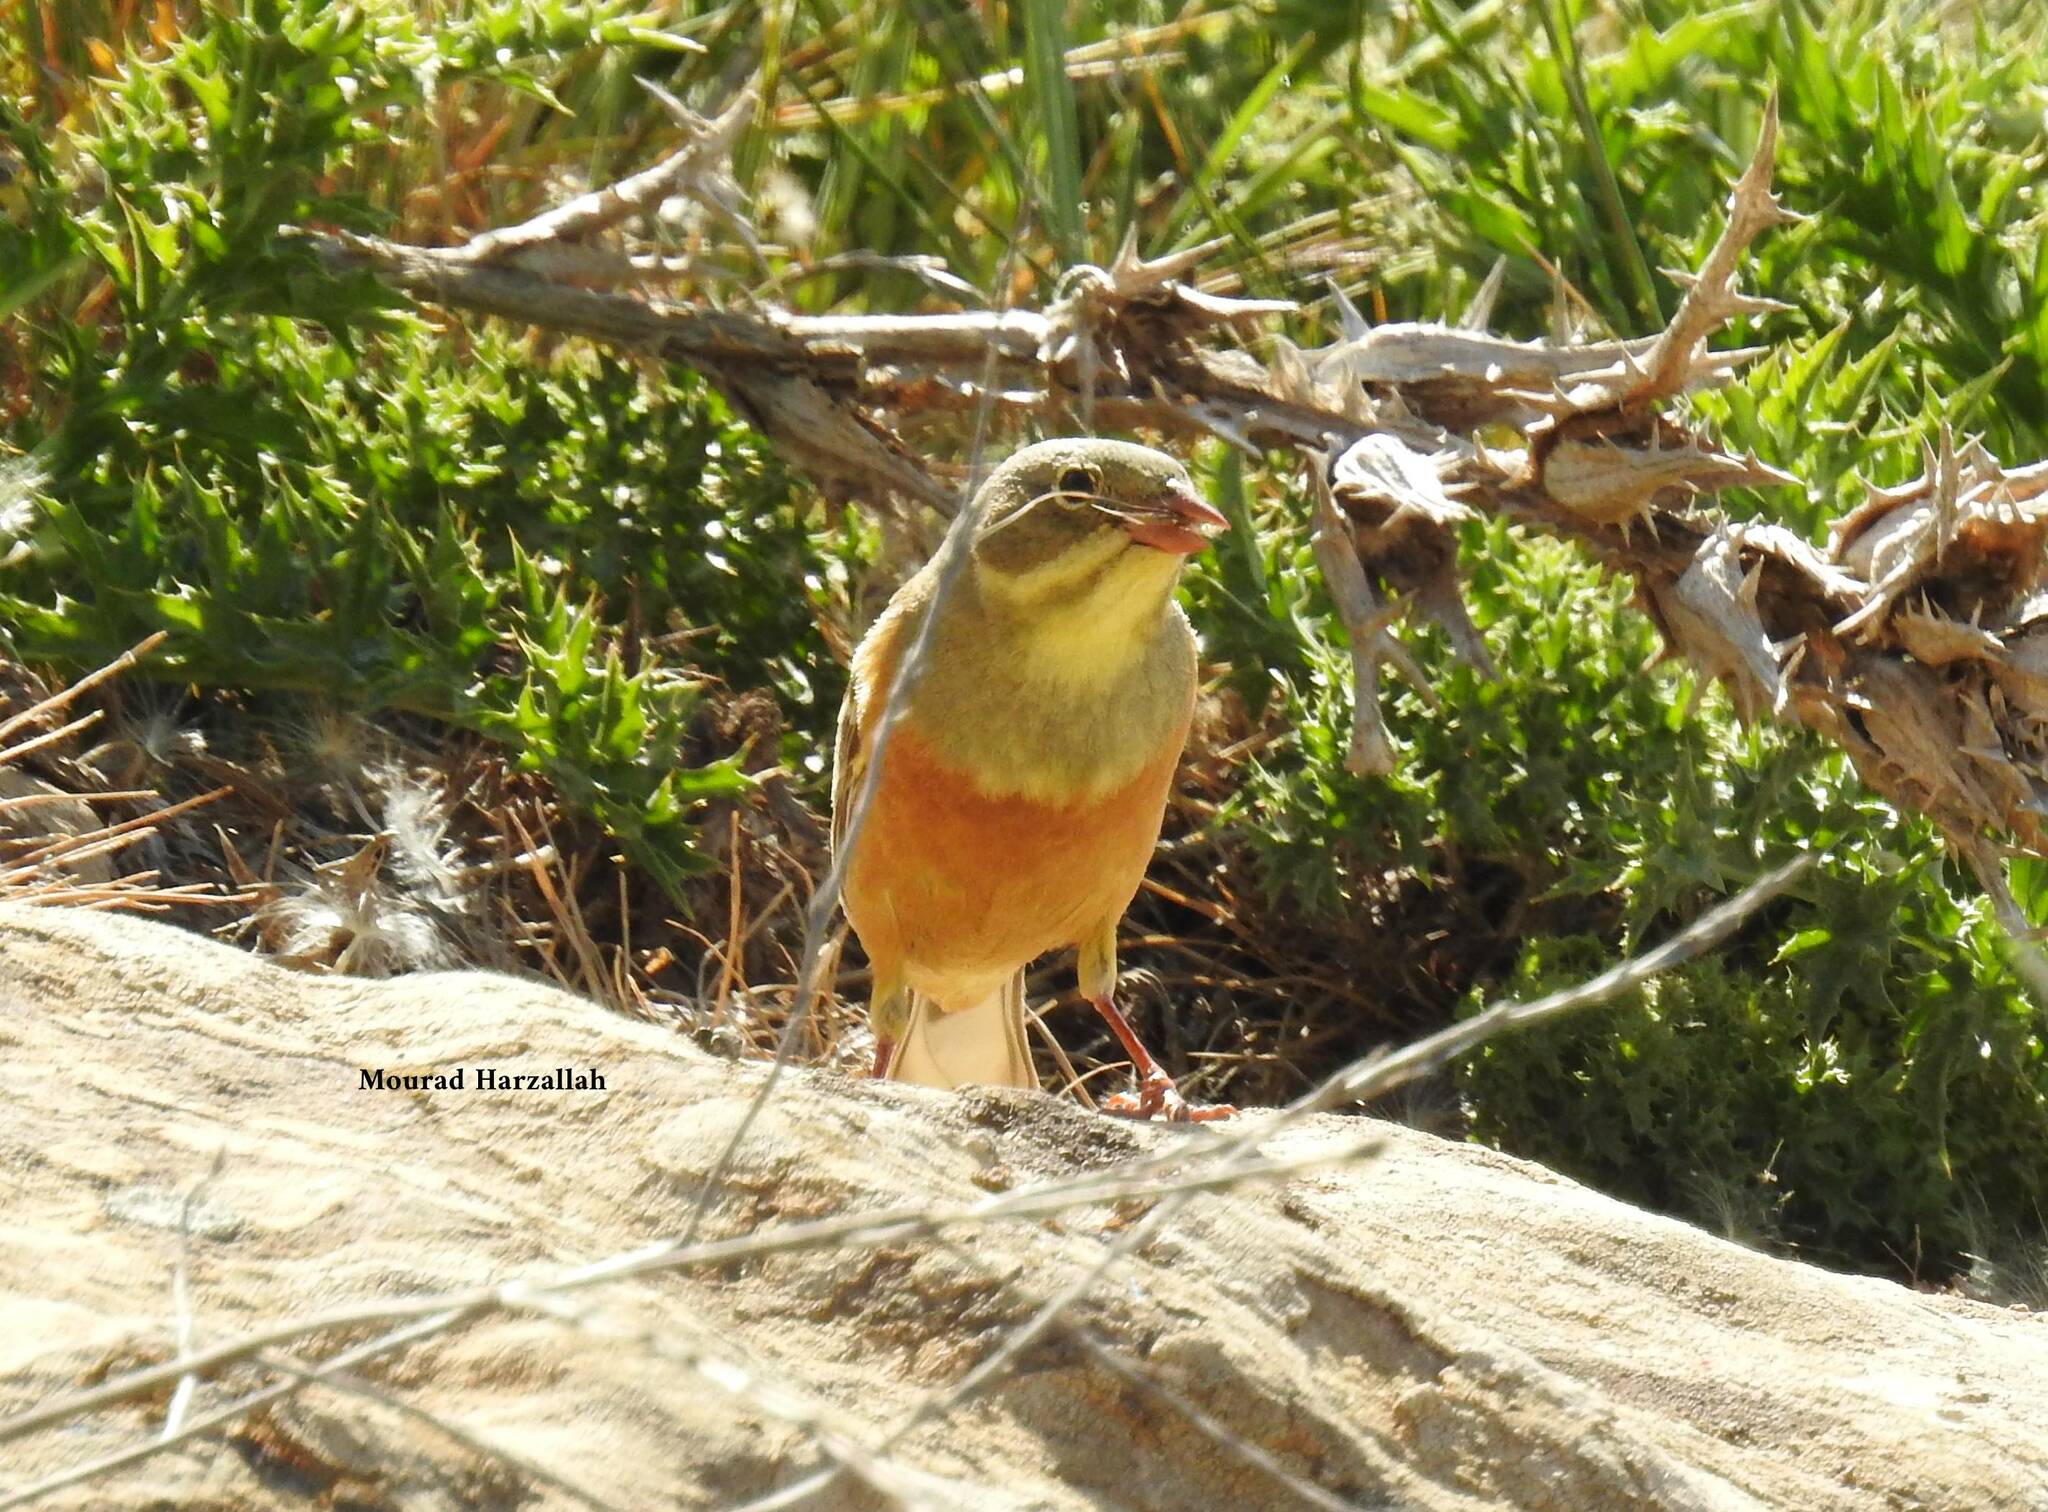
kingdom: Animalia
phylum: Chordata
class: Aves
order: Passeriformes
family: Emberizidae
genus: Emberiza
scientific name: Emberiza hortulana
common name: Ortolan bunting
